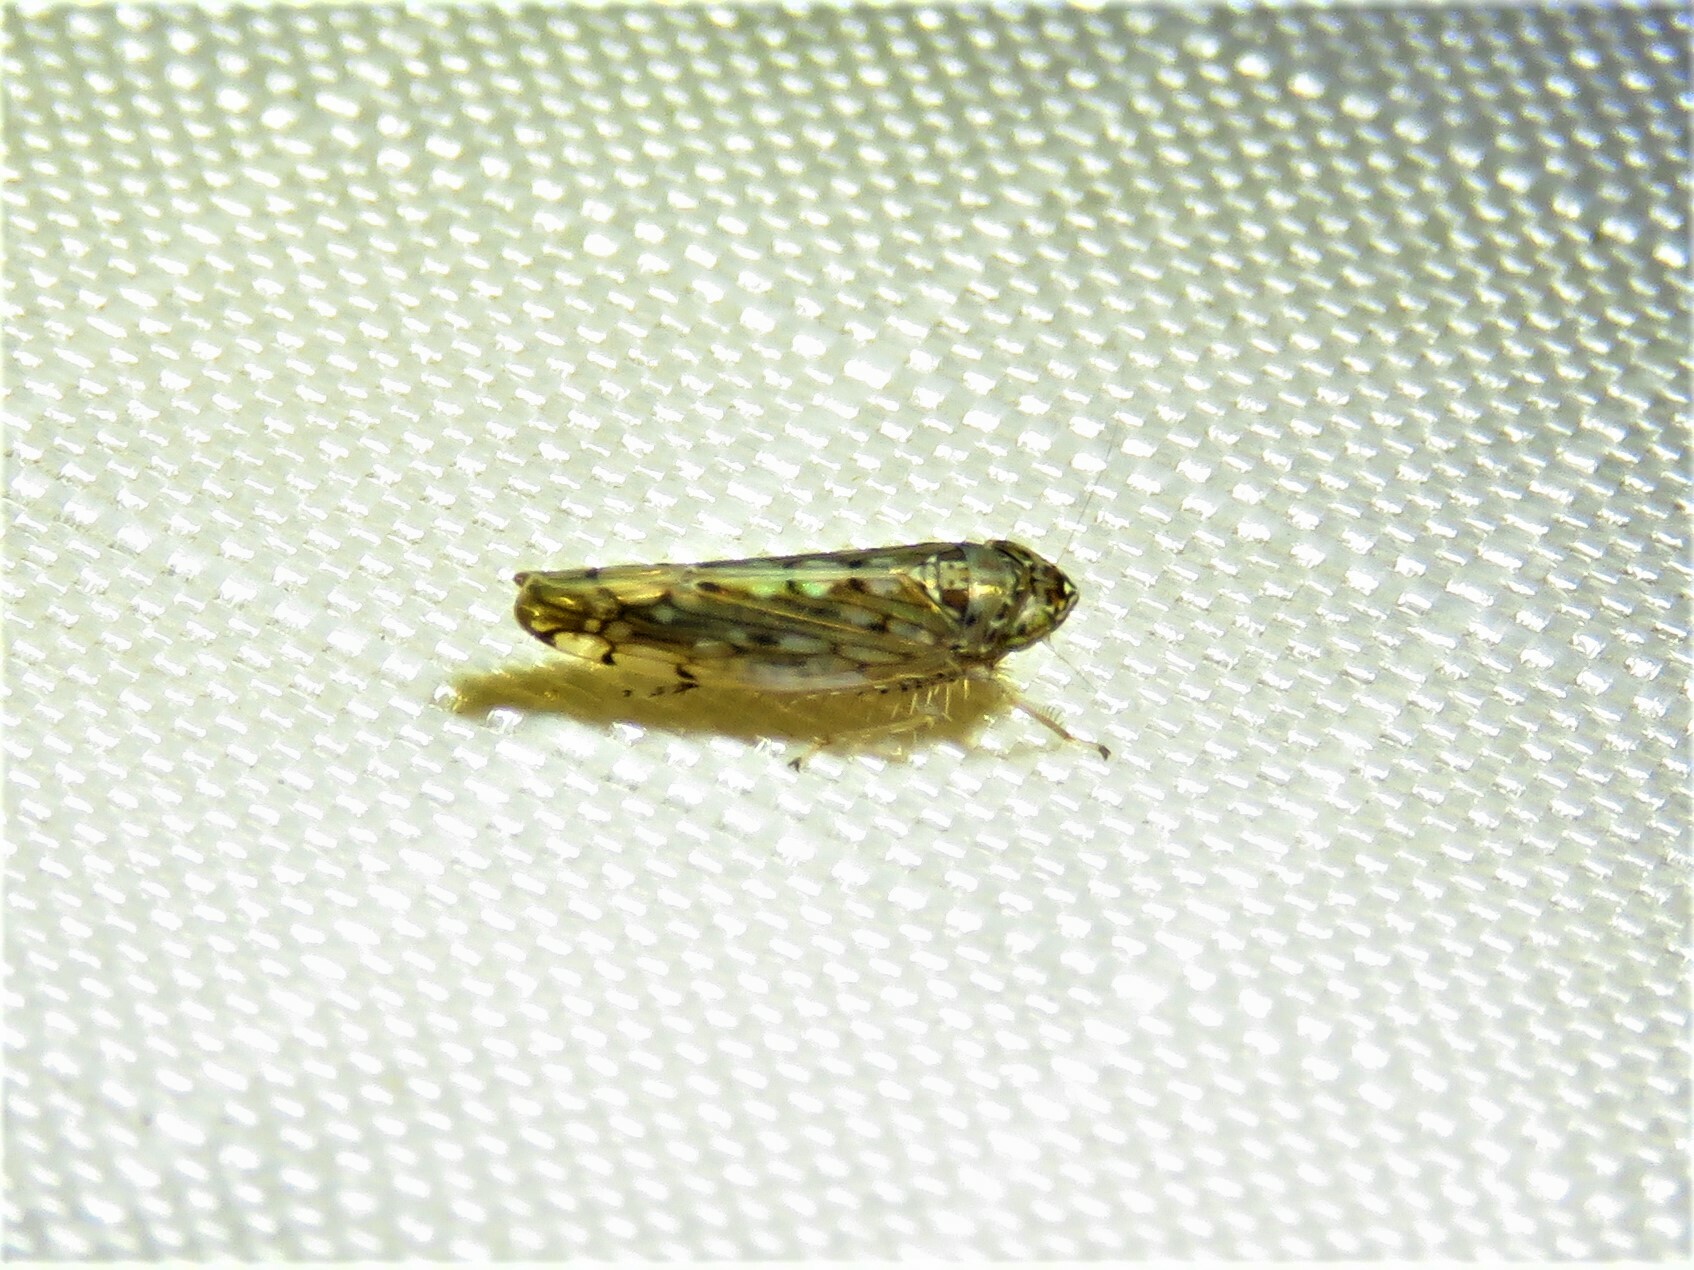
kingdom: Animalia
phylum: Arthropoda
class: Insecta
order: Hemiptera
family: Cicadellidae
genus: Osbornellus
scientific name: Osbornellus clarus
